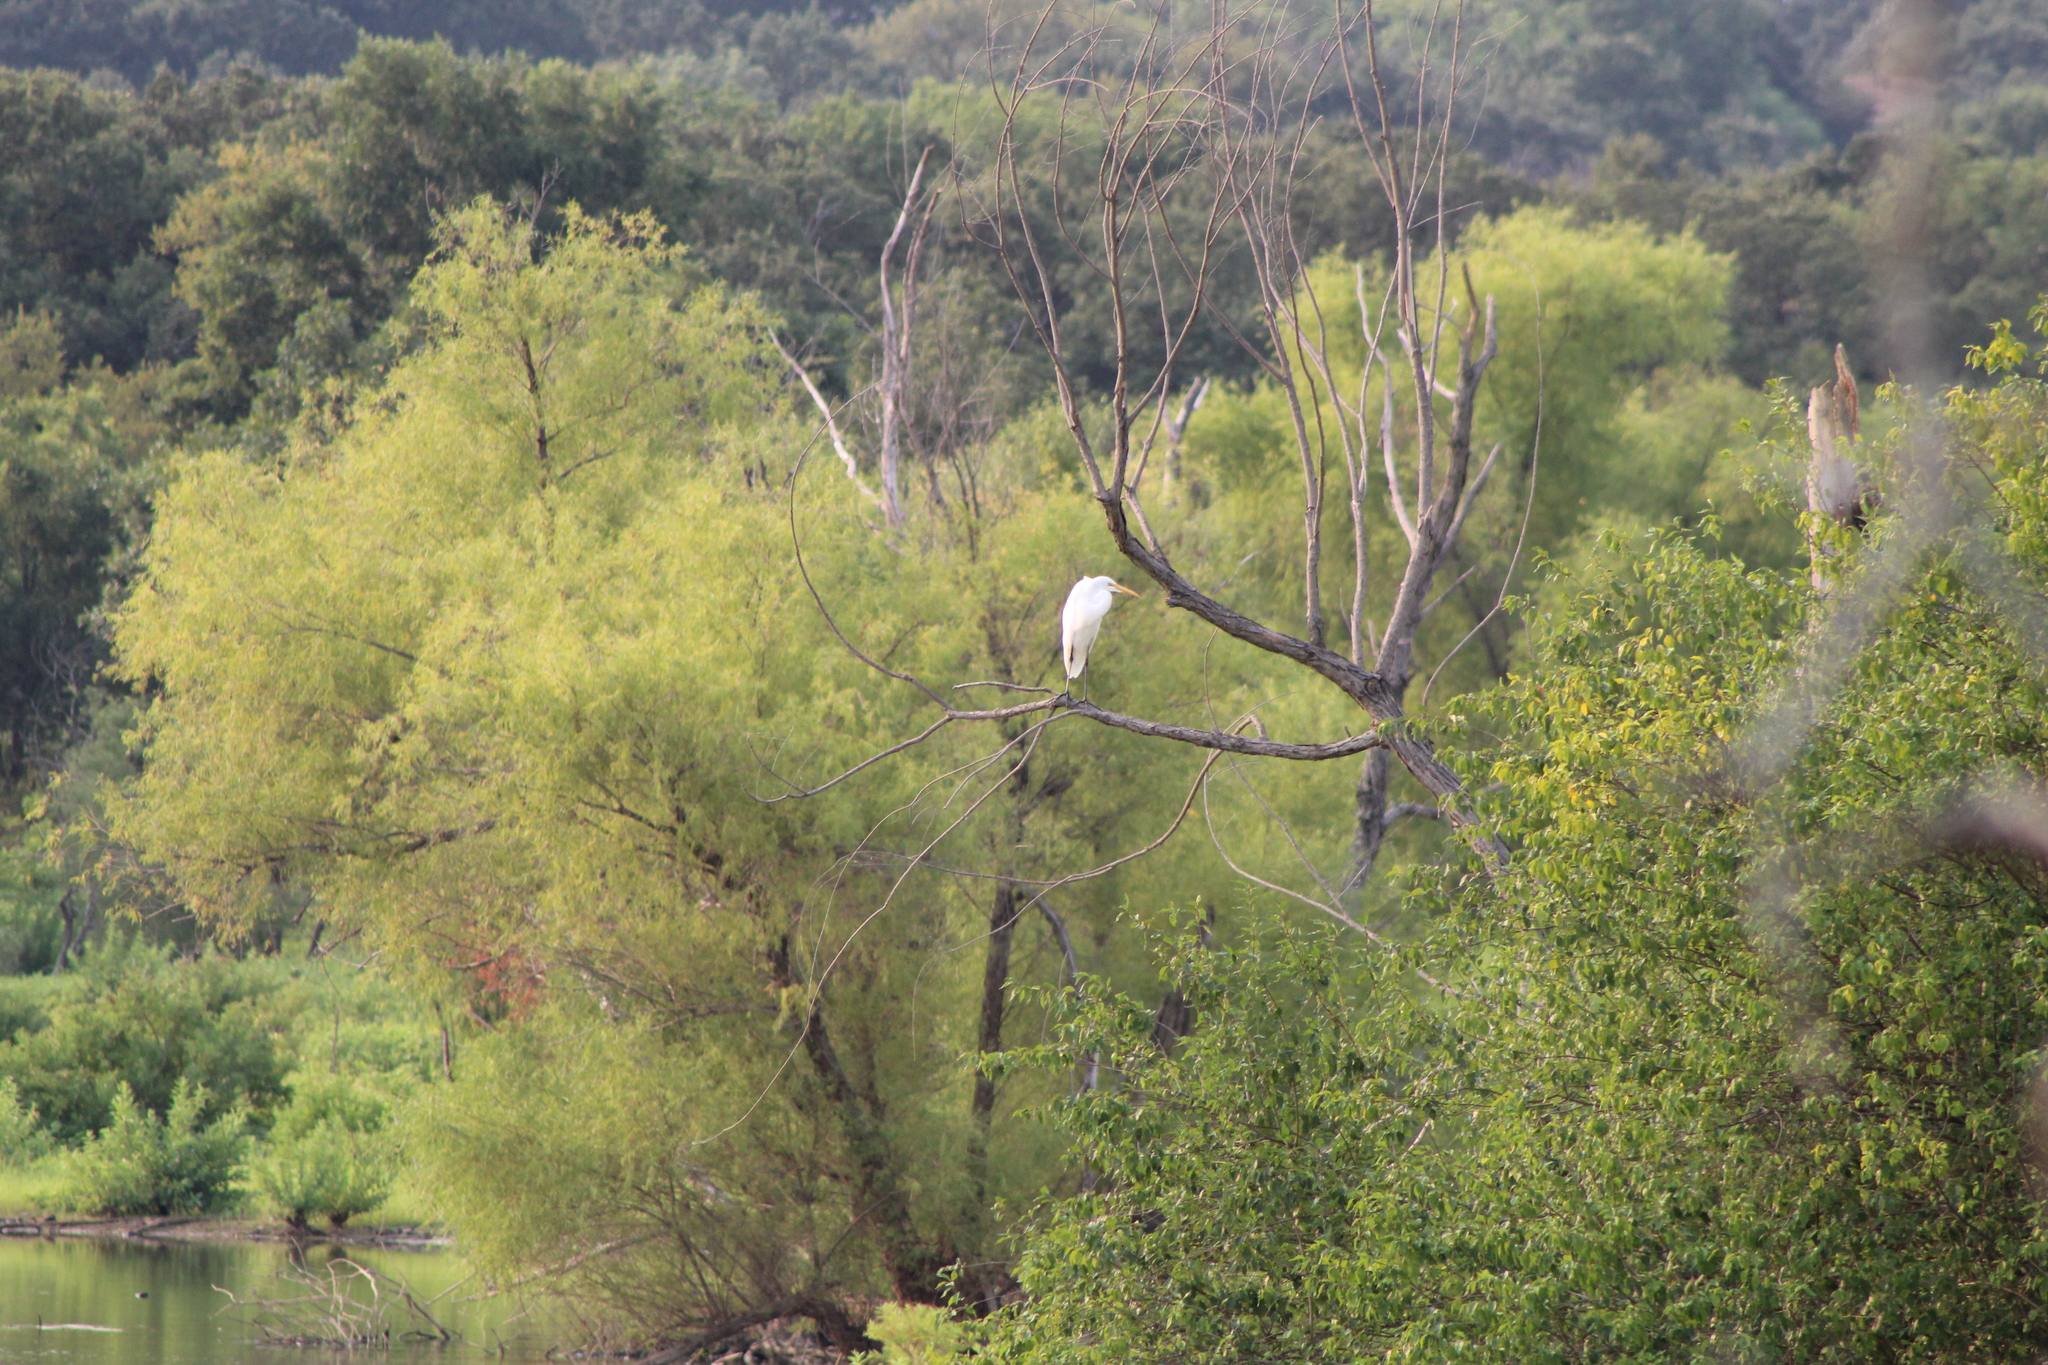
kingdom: Animalia
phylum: Chordata
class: Aves
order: Pelecaniformes
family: Ardeidae
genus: Ardea
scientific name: Ardea alba
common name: Great egret
